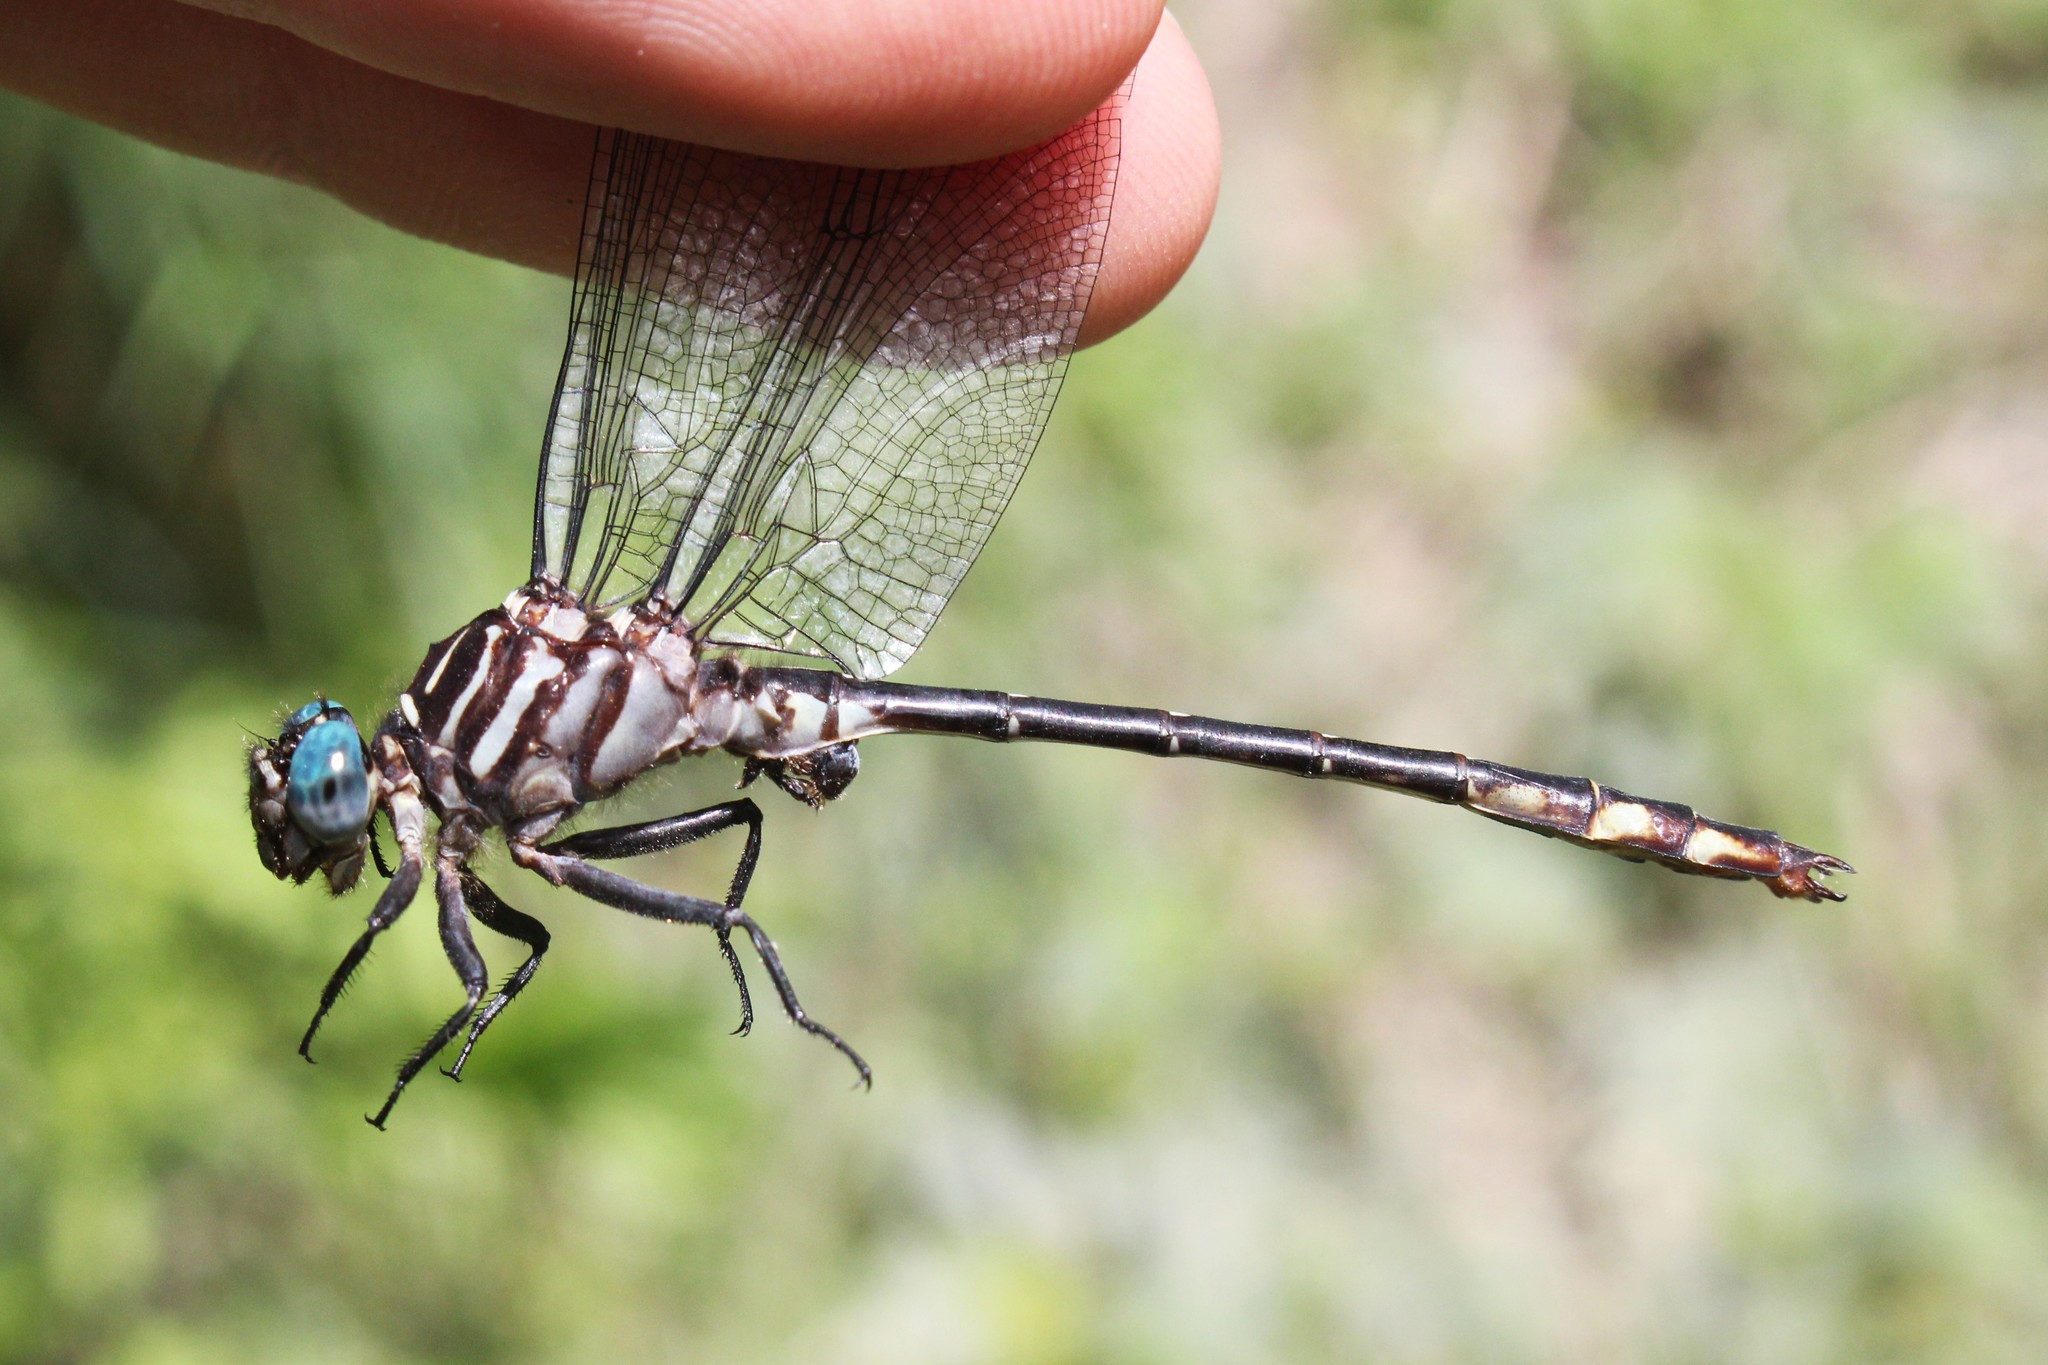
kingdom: Animalia
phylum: Arthropoda
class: Insecta
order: Odonata
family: Gomphidae
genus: Stylurus
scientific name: Stylurus notatus
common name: Elusive clubtail
